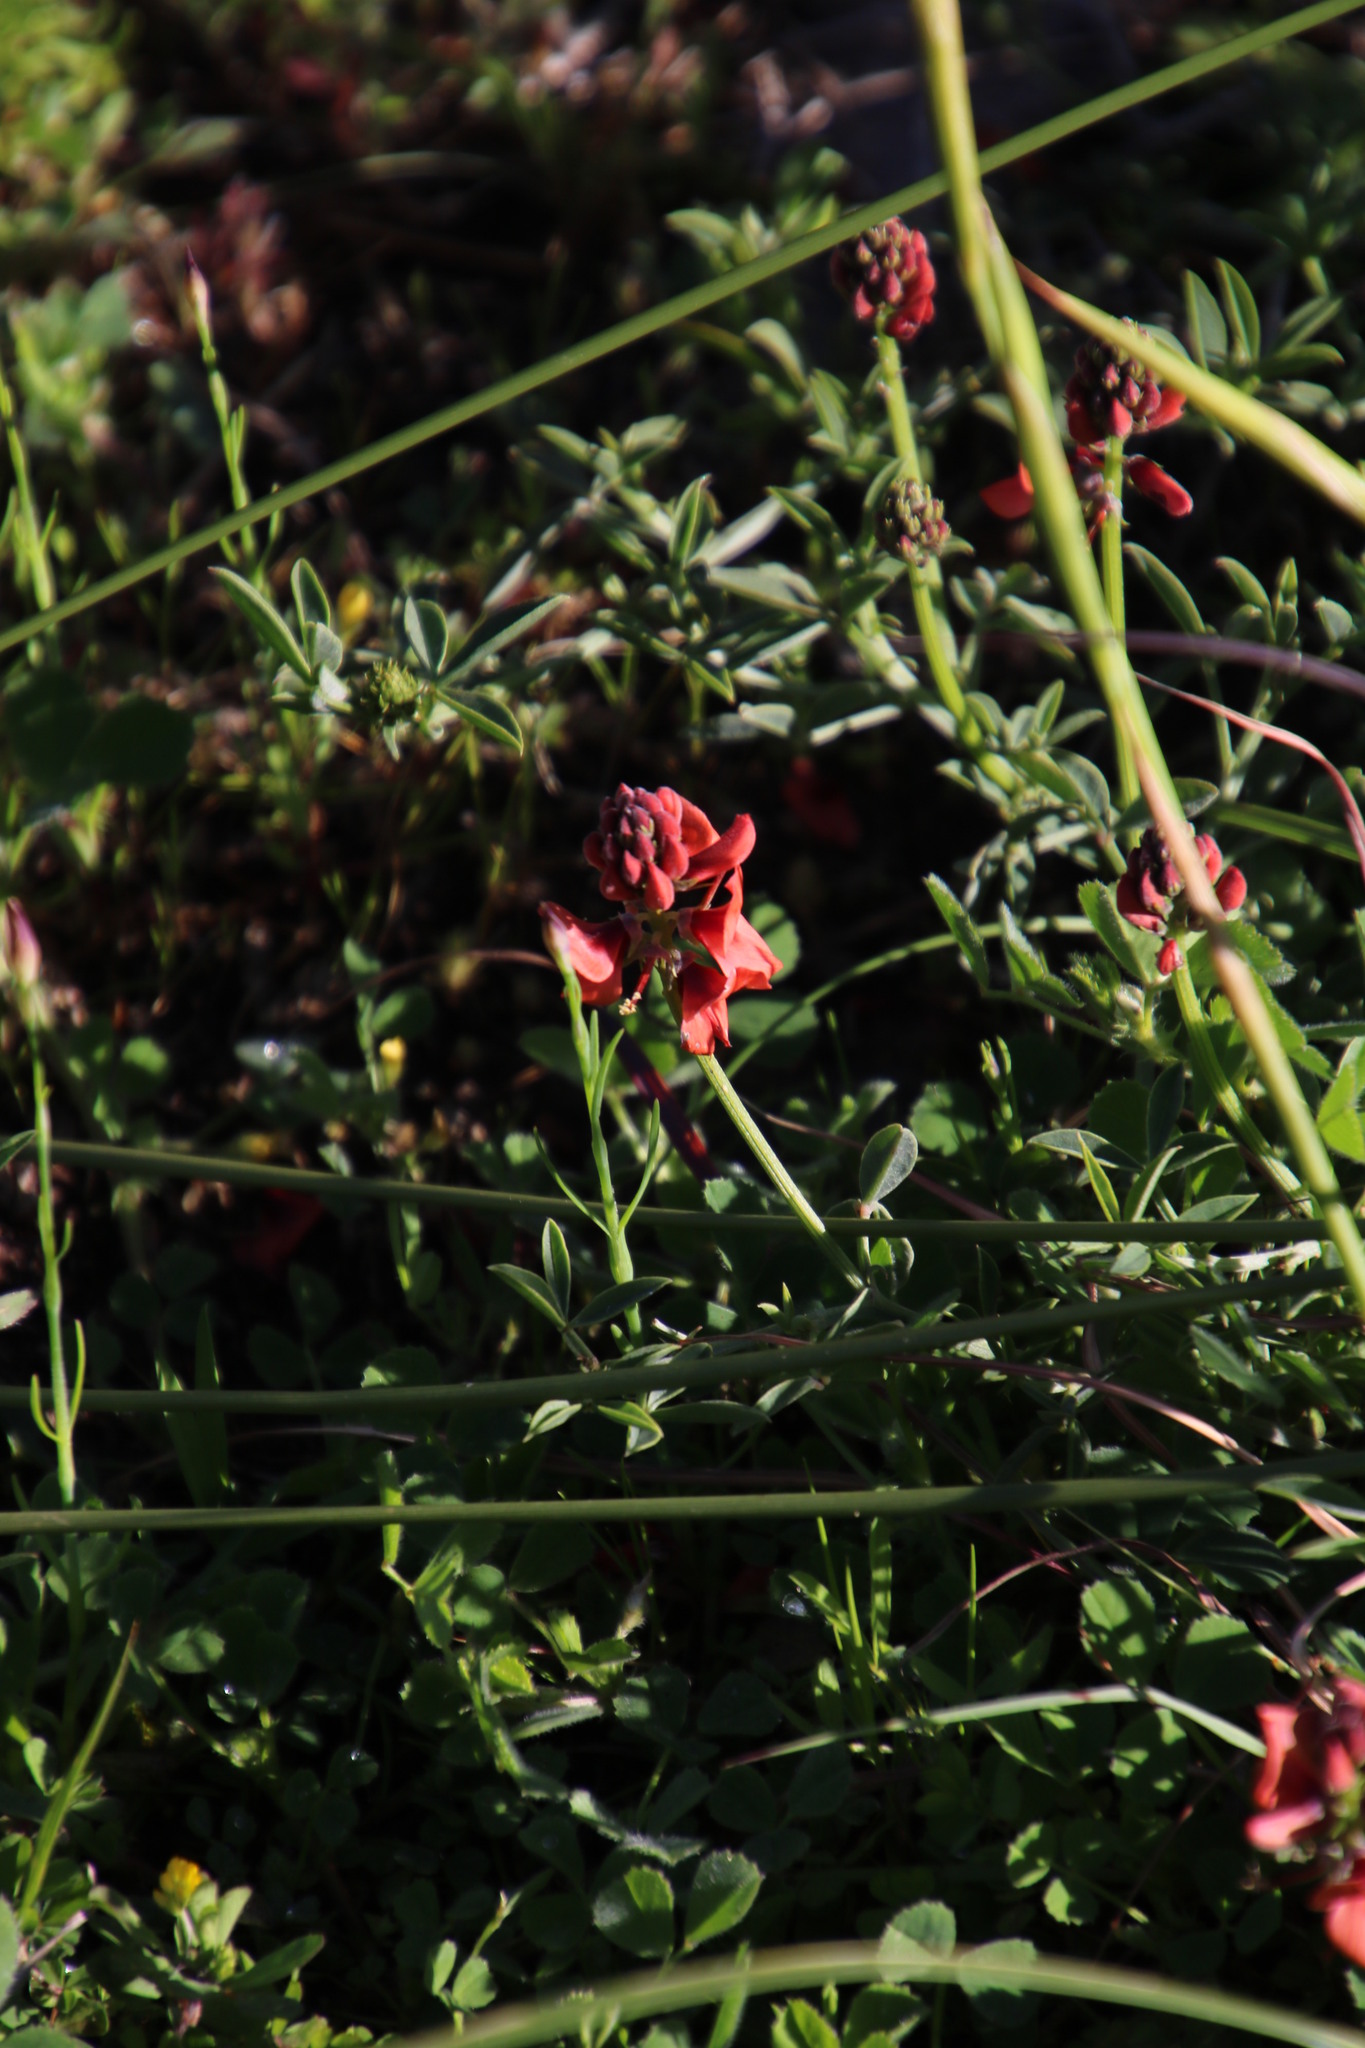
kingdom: Plantae
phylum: Tracheophyta
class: Magnoliopsida
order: Fabales
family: Fabaceae
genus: Indigofera
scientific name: Indigofera complanata
